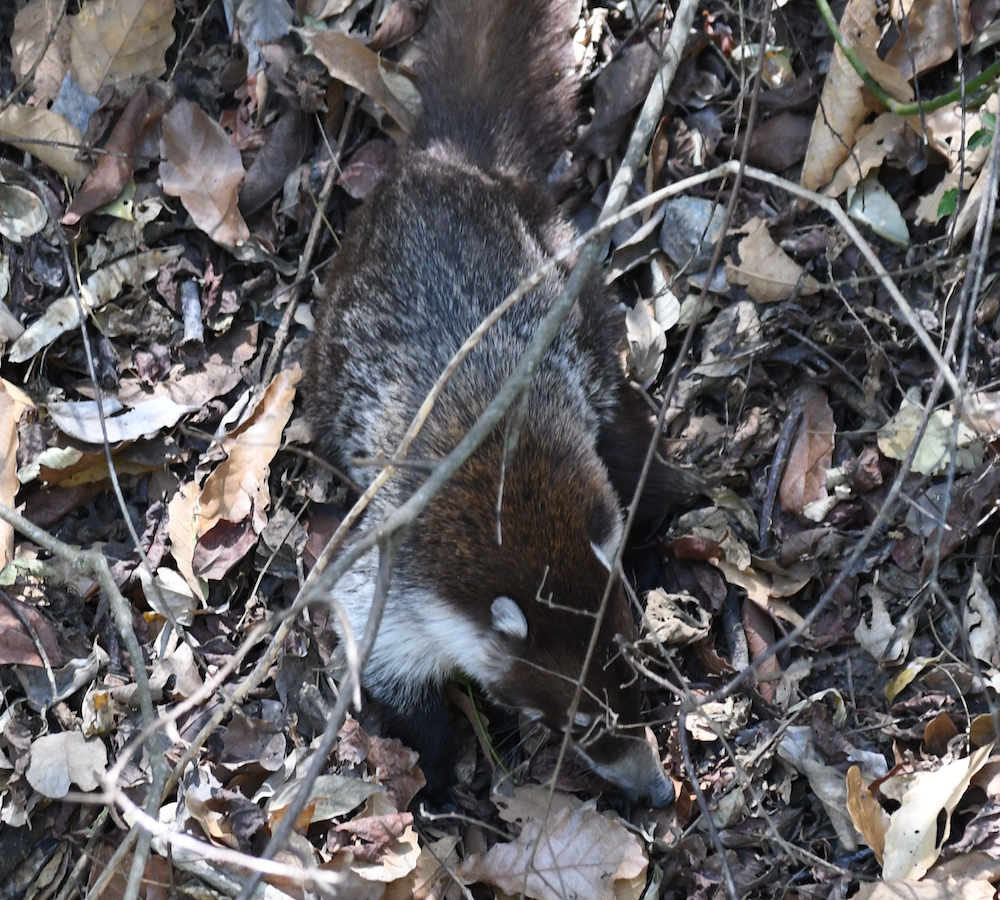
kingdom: Animalia
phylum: Chordata
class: Mammalia
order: Carnivora
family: Procyonidae
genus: Nasua
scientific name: Nasua narica
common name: White-nosed coati
